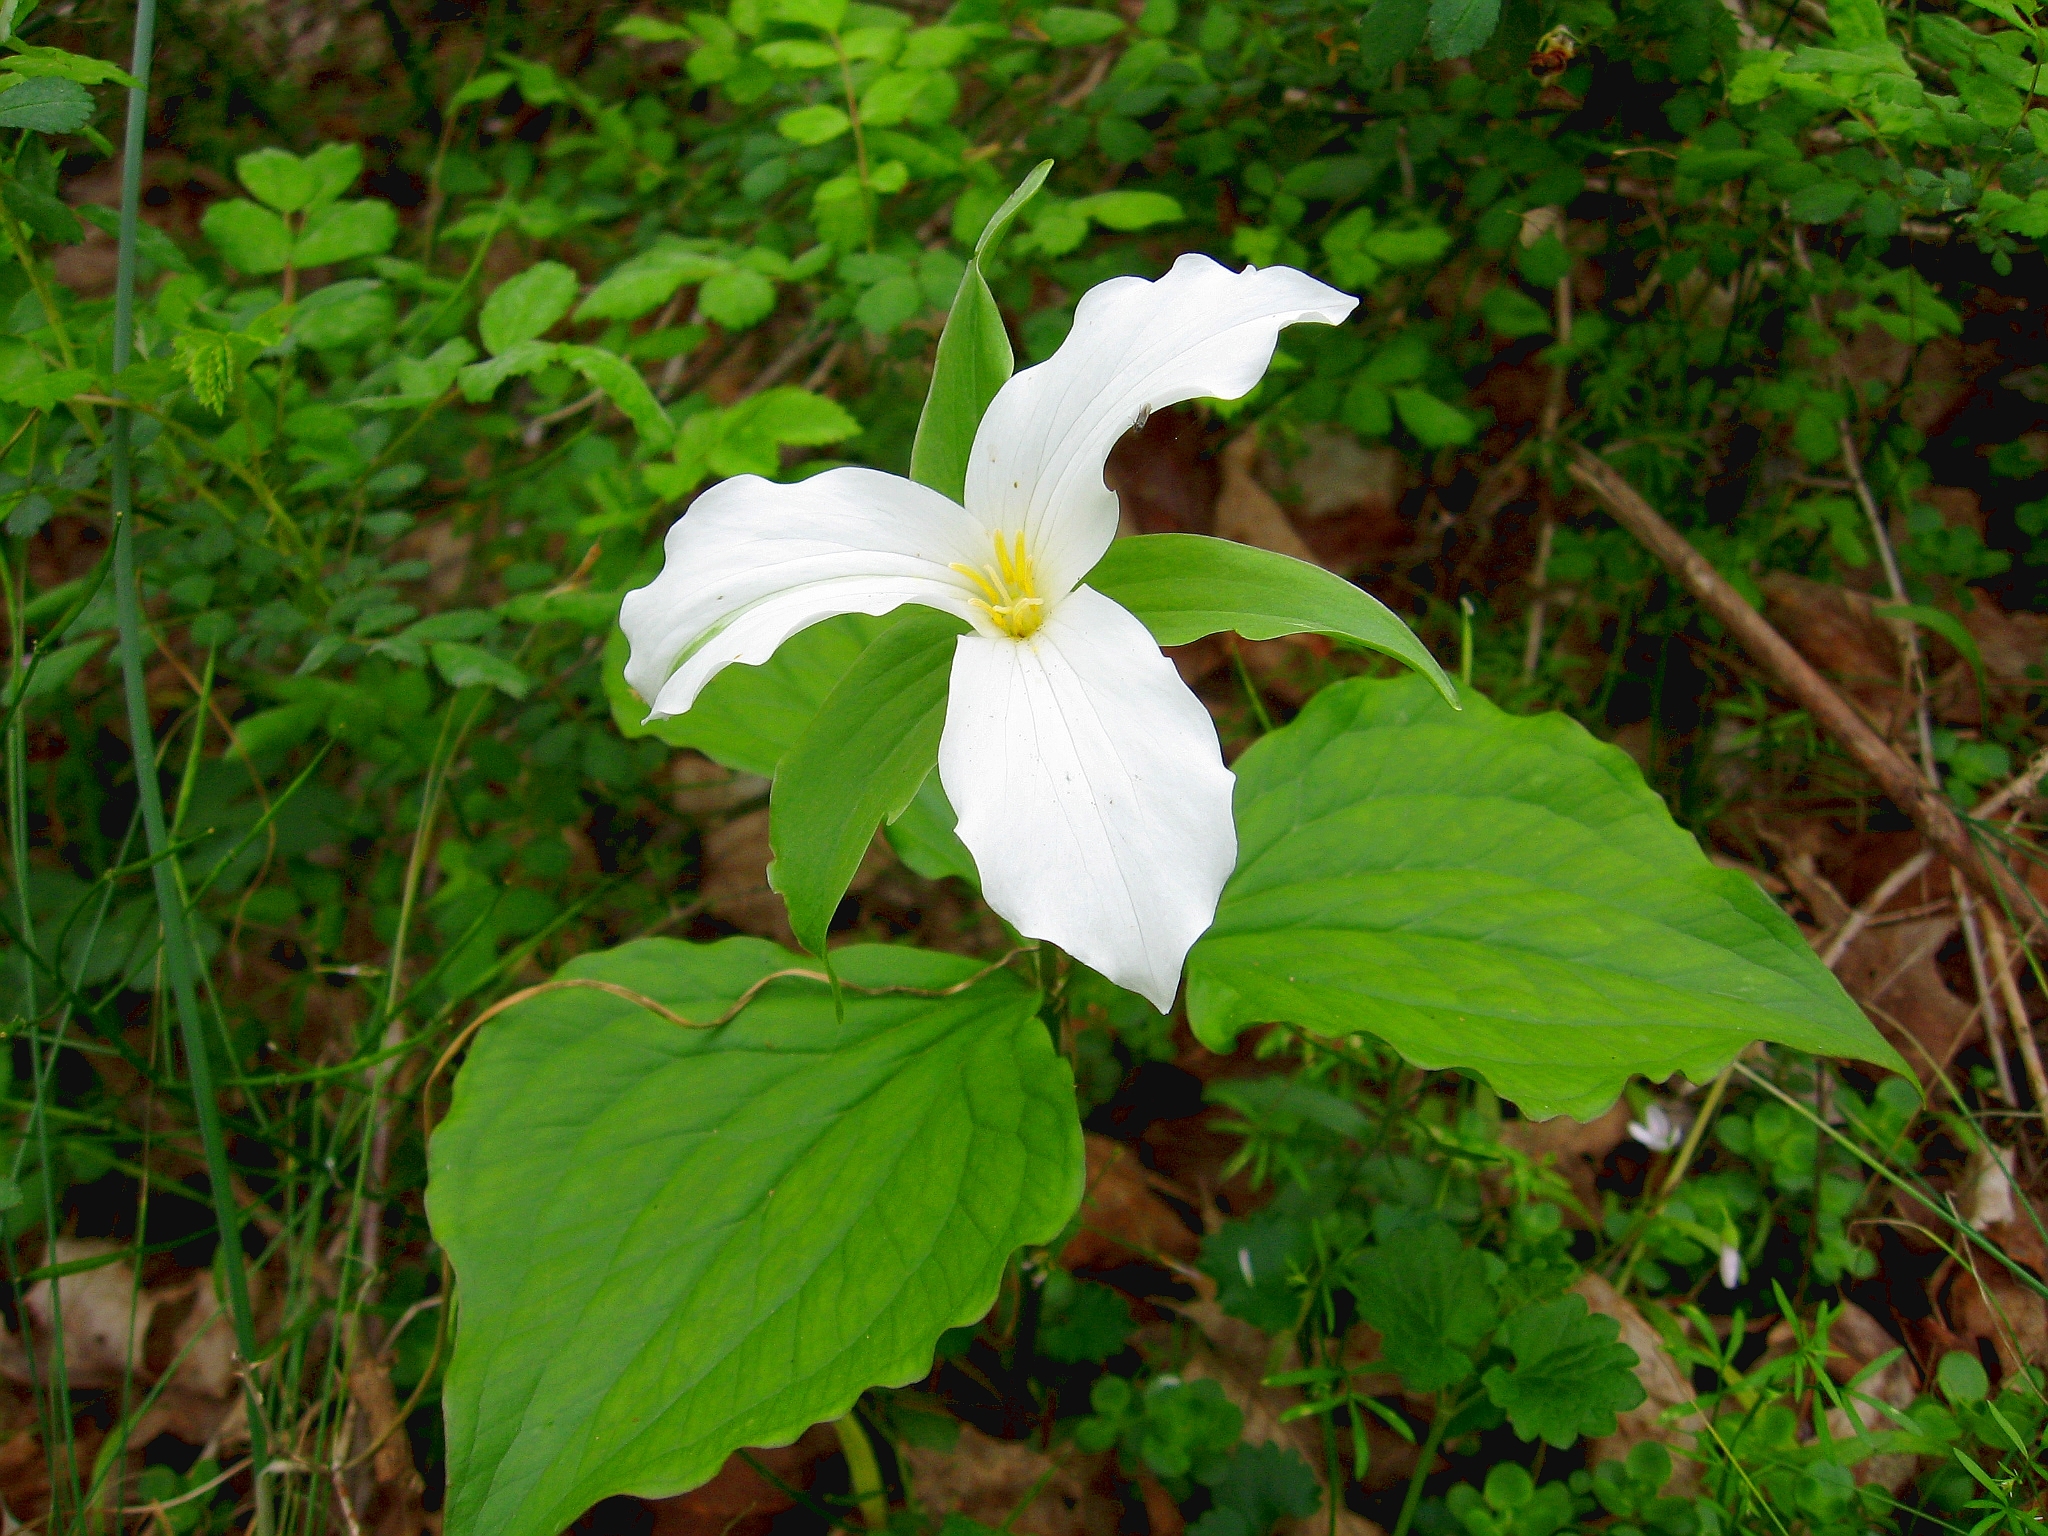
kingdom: Plantae
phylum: Tracheophyta
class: Liliopsida
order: Liliales
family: Melanthiaceae
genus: Trillium
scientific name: Trillium grandiflorum
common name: Great white trillium
